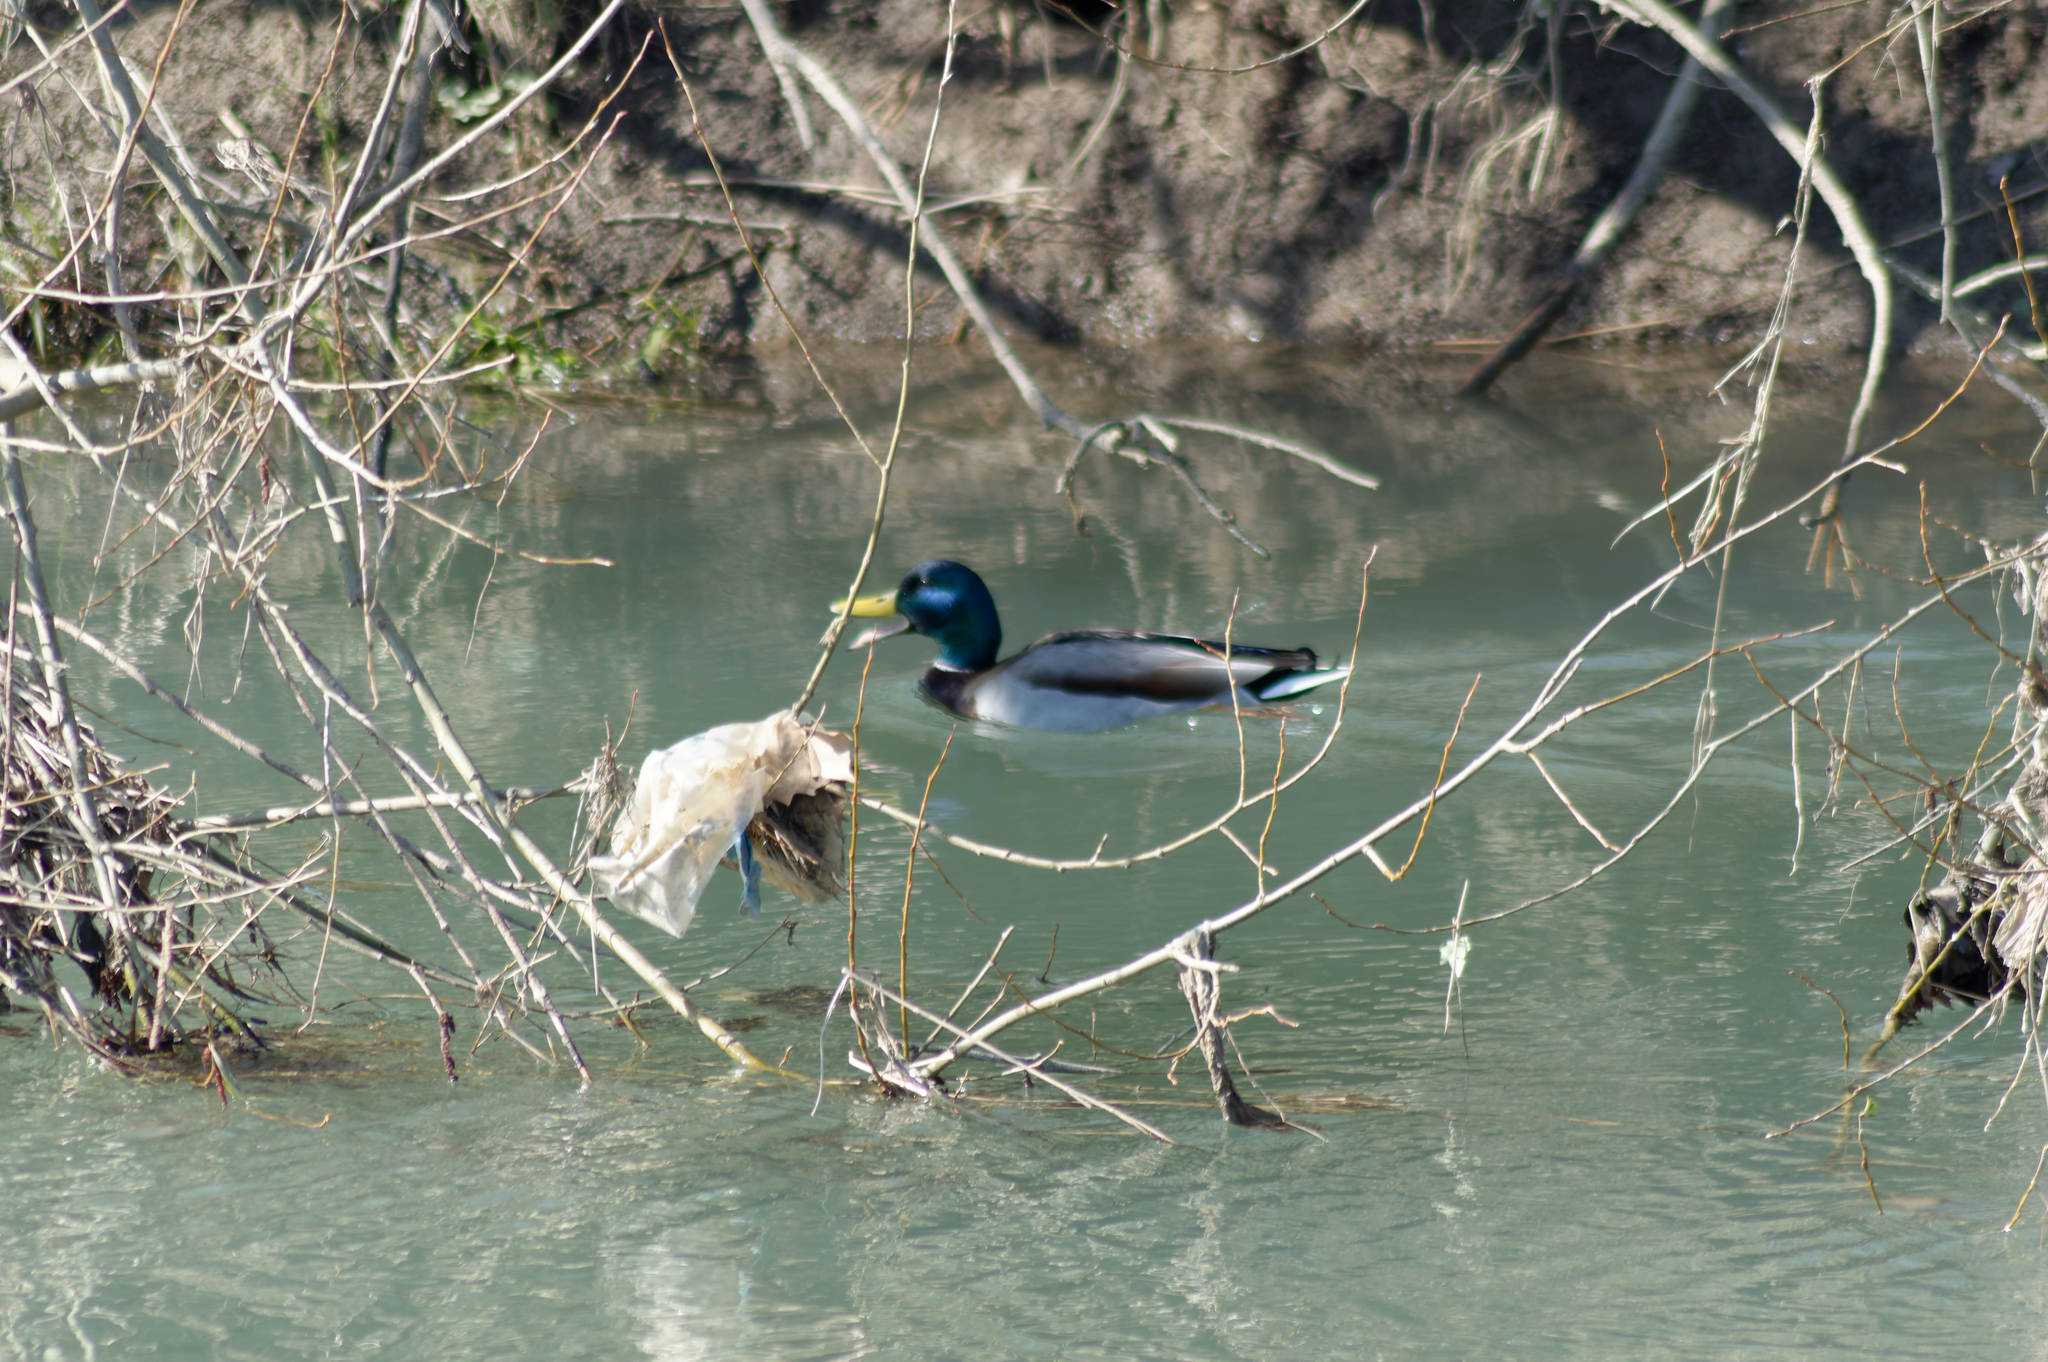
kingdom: Animalia
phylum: Chordata
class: Aves
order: Anseriformes
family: Anatidae
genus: Anas
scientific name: Anas platyrhynchos
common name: Mallard
